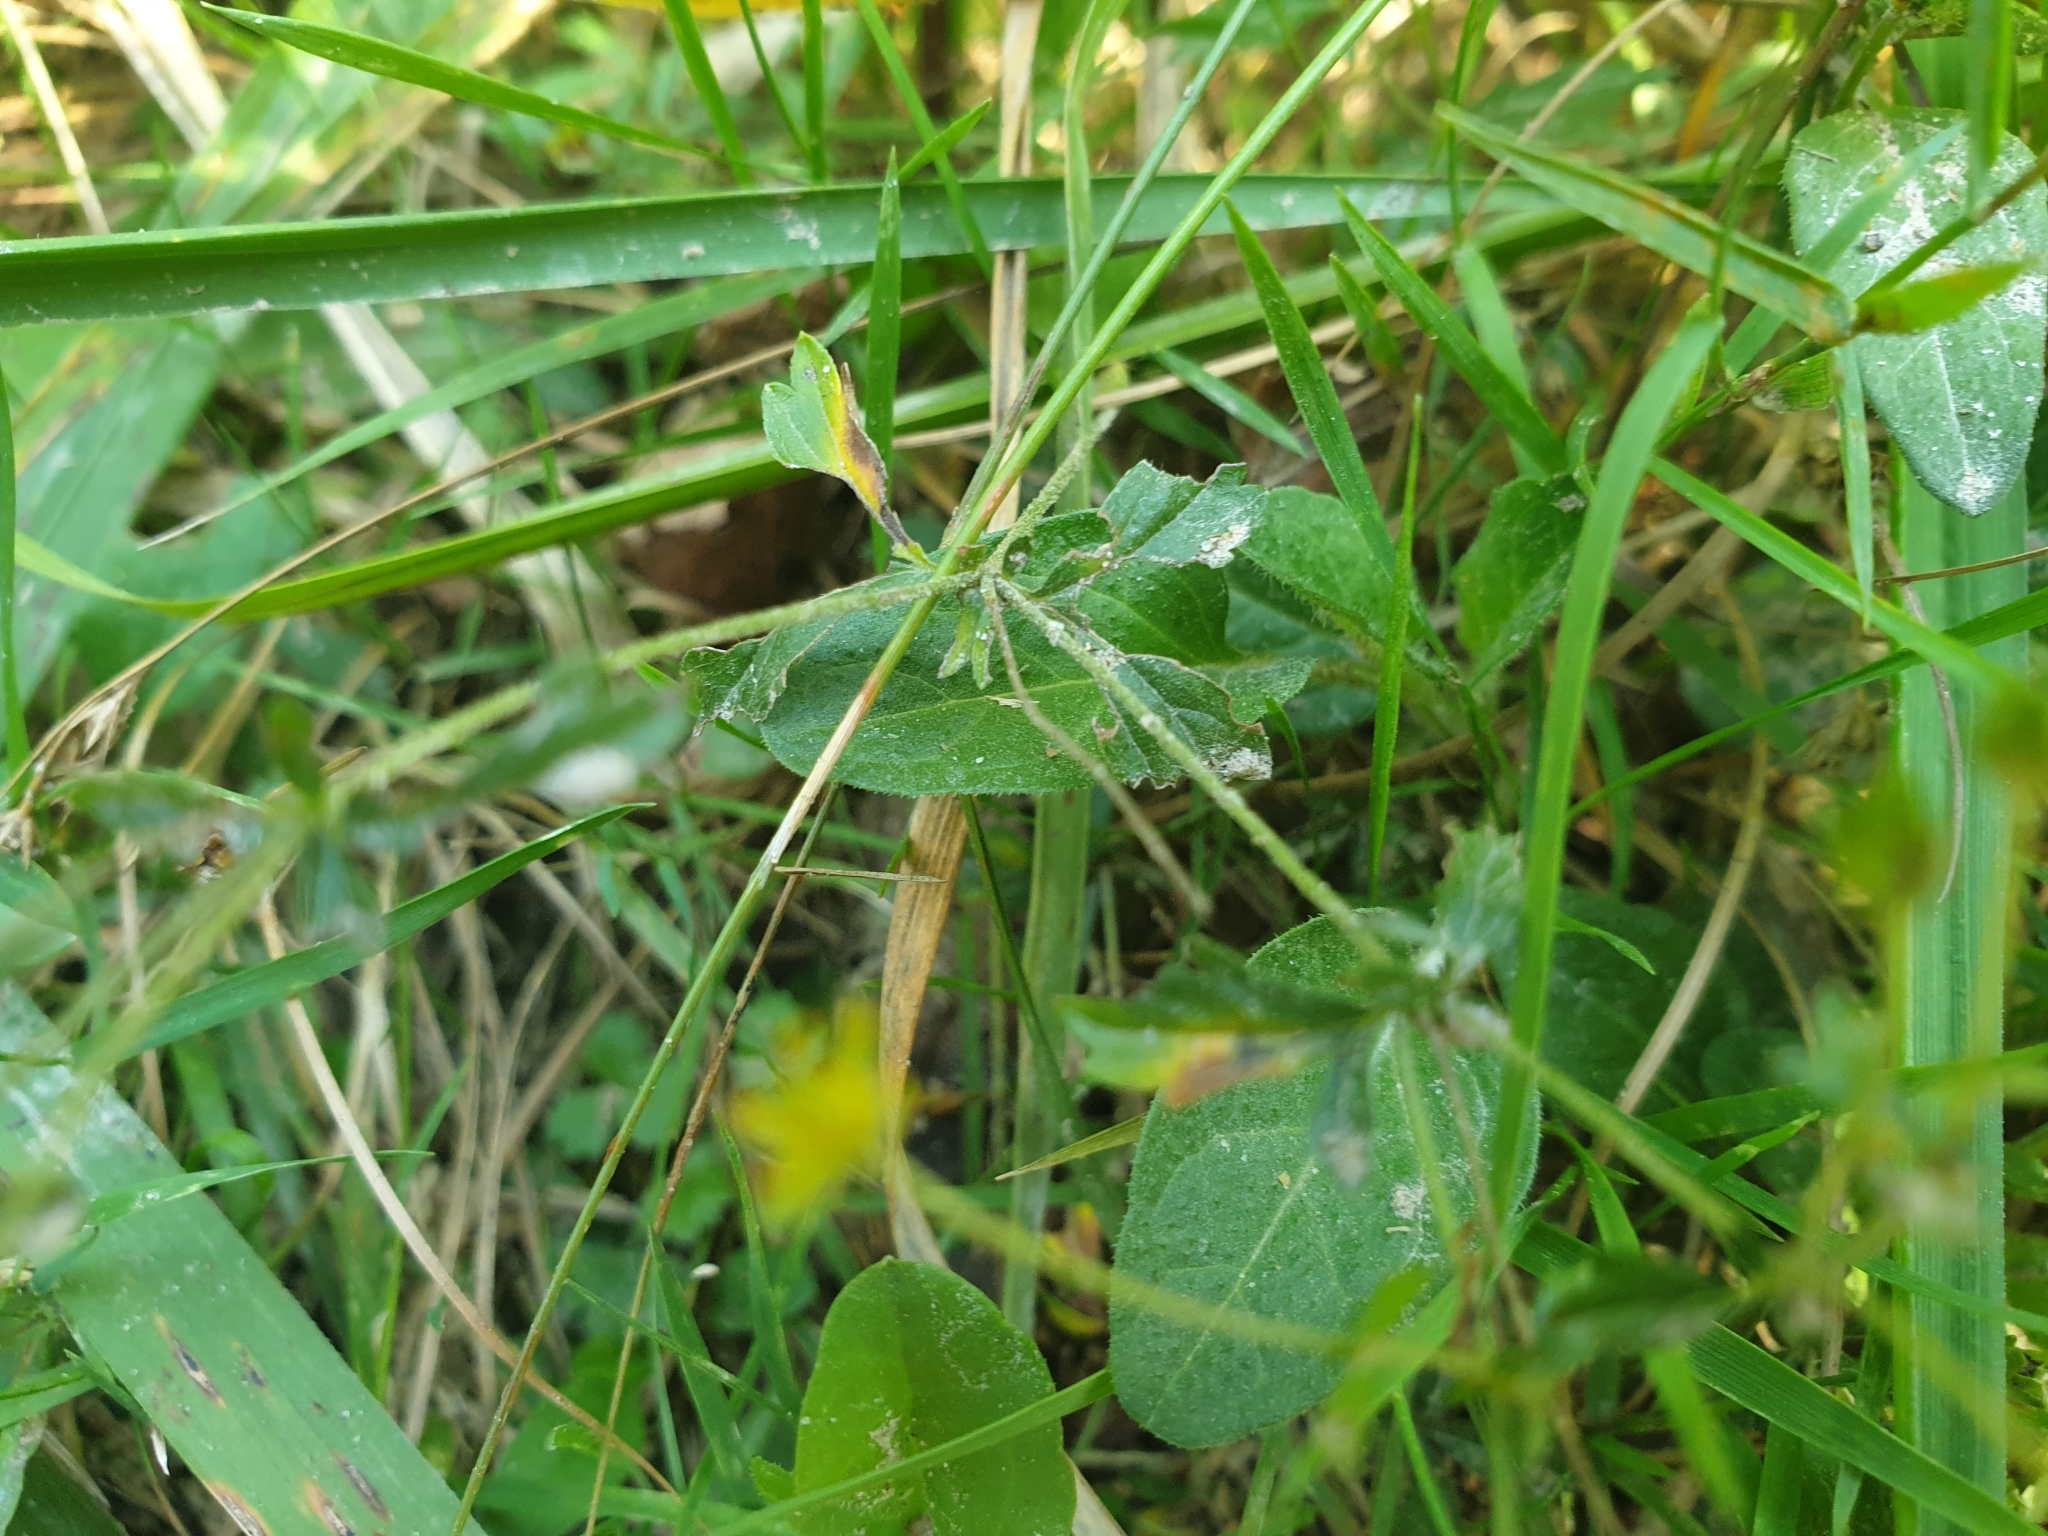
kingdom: Plantae
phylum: Tracheophyta
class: Magnoliopsida
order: Rosales
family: Rosaceae
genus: Potentilla
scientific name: Potentilla erecta
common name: Tormentil
